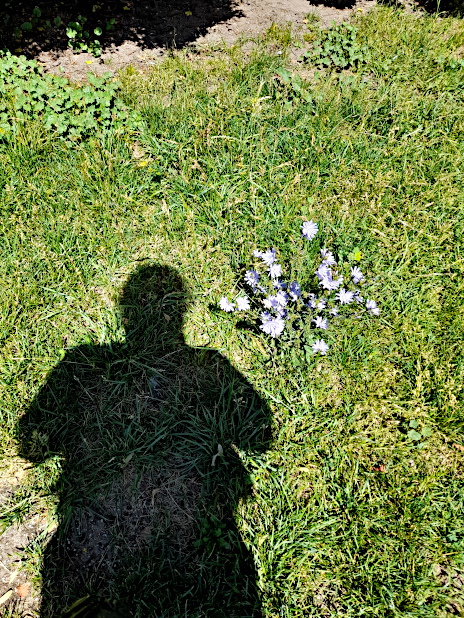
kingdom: Plantae
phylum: Tracheophyta
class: Magnoliopsida
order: Asterales
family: Asteraceae
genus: Cichorium
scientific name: Cichorium intybus
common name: Chicory
